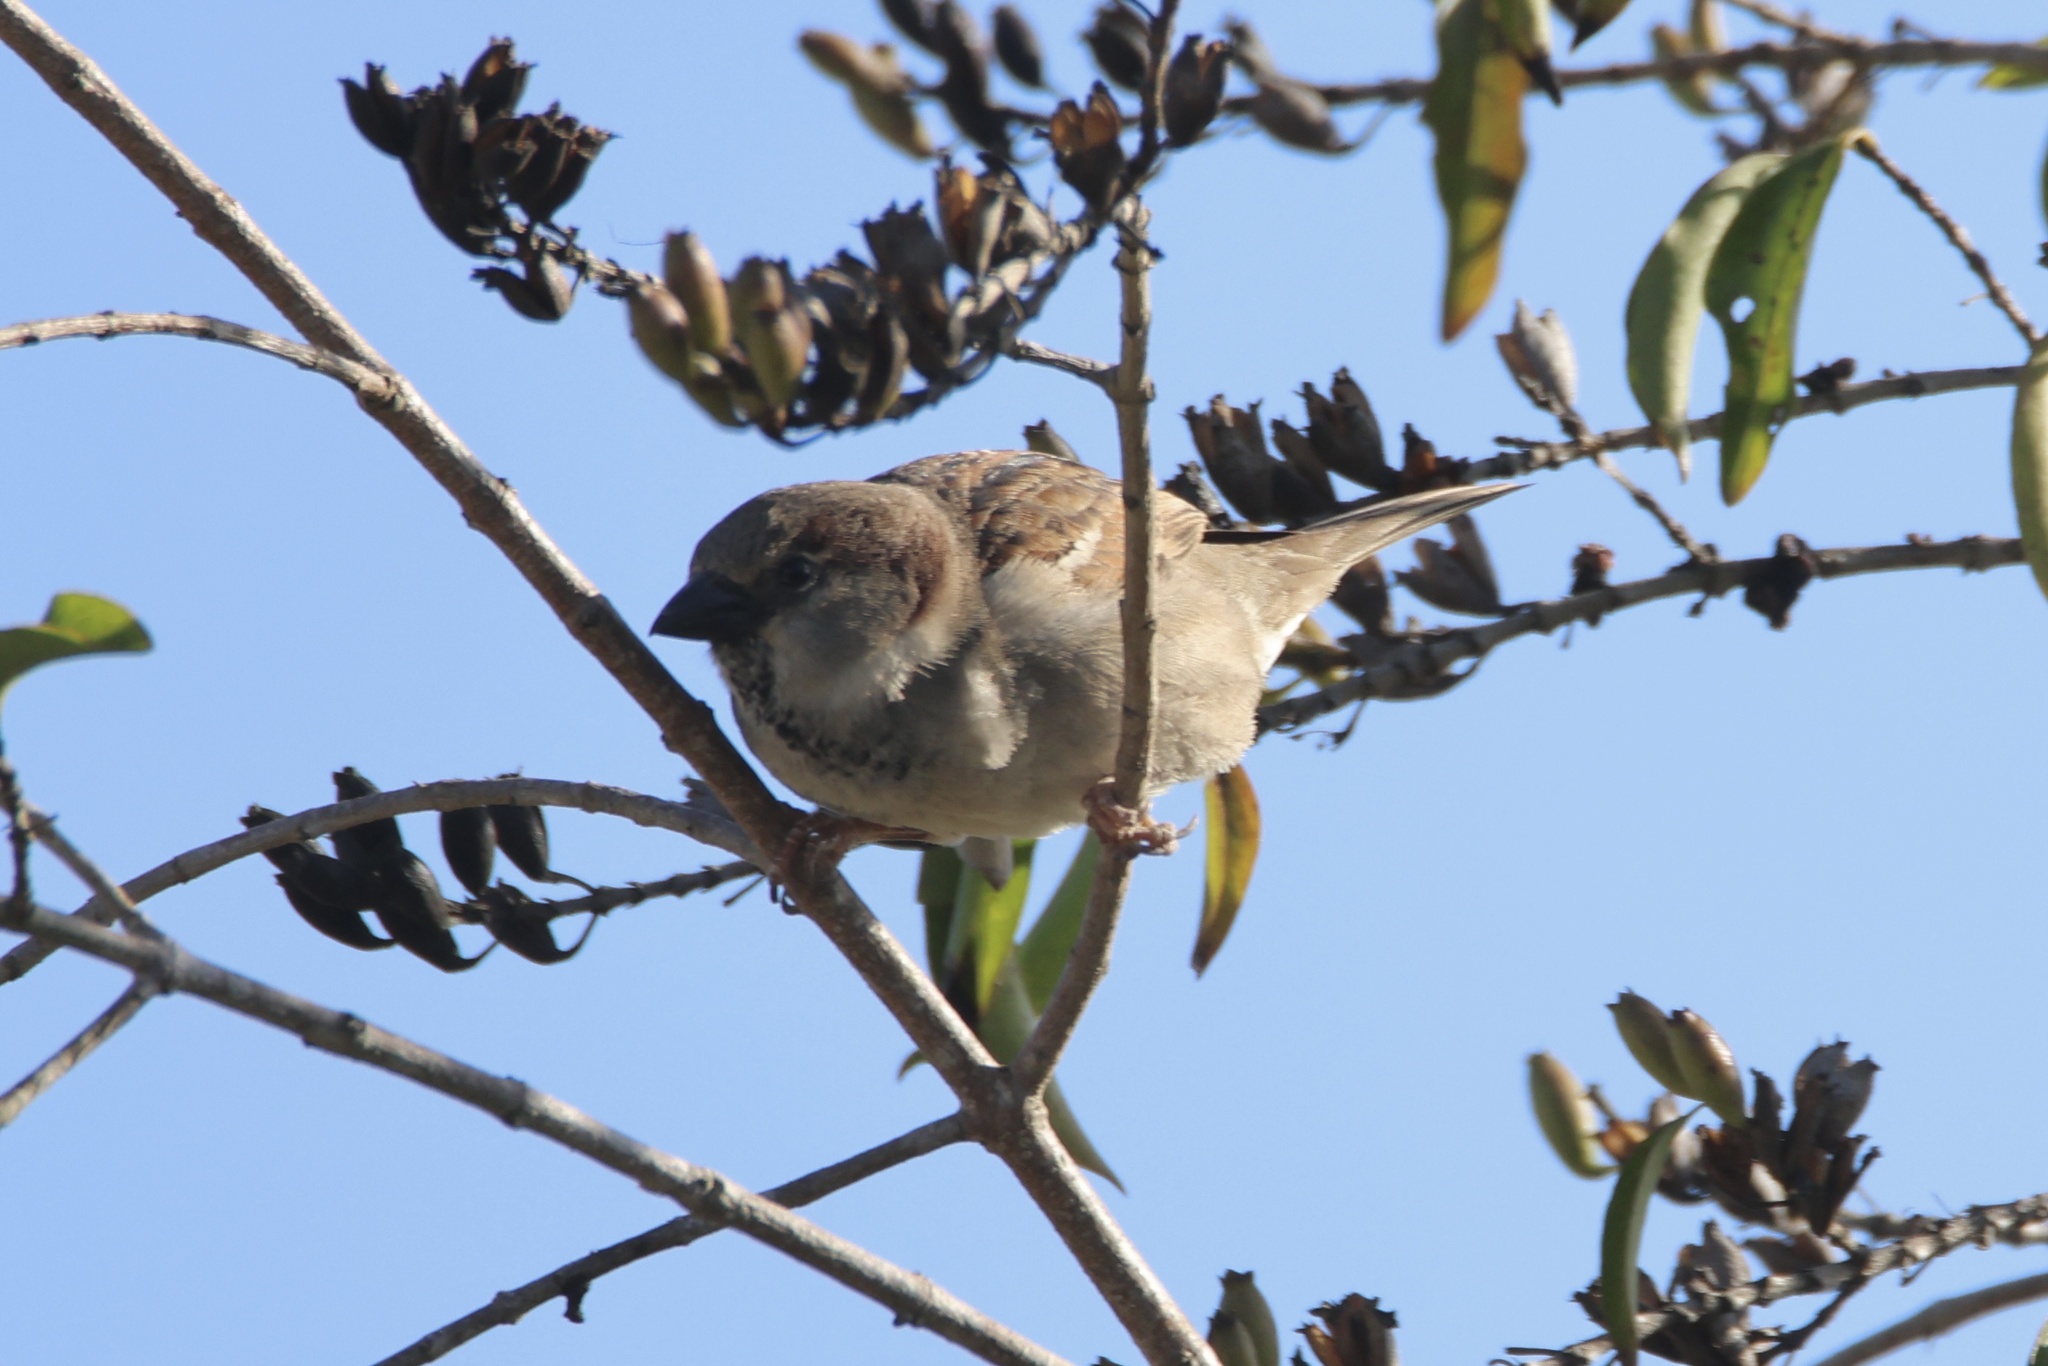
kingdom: Animalia
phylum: Chordata
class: Aves
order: Passeriformes
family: Passeridae
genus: Passer
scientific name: Passer domesticus
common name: House sparrow
